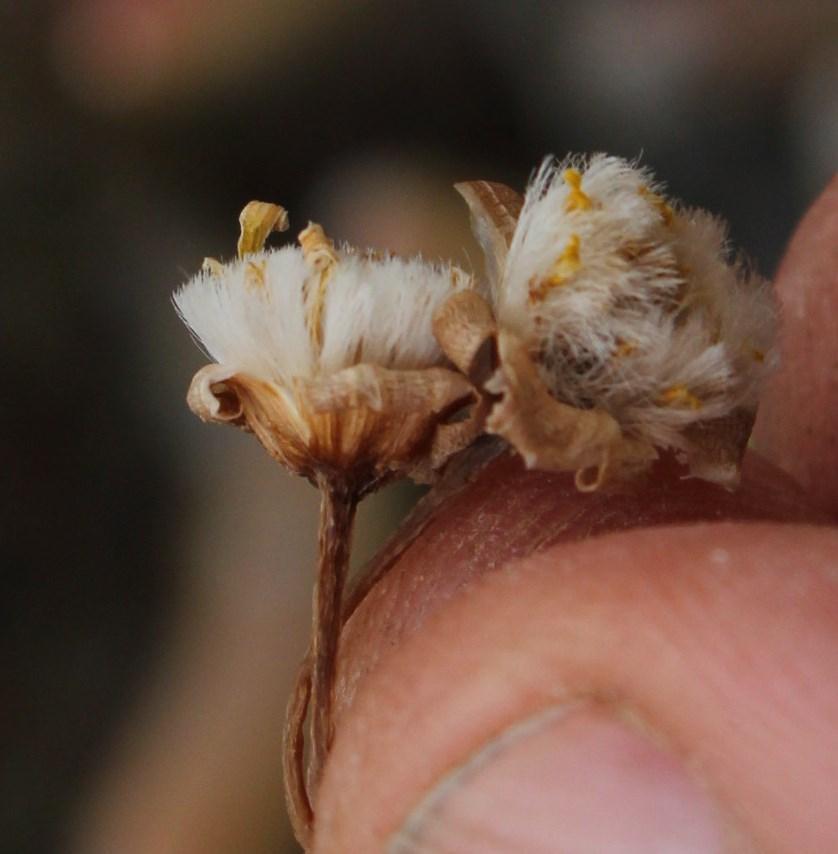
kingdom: Plantae
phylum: Tracheophyta
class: Magnoliopsida
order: Asterales
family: Asteraceae
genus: Crassothonna
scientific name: Crassothonna opima
